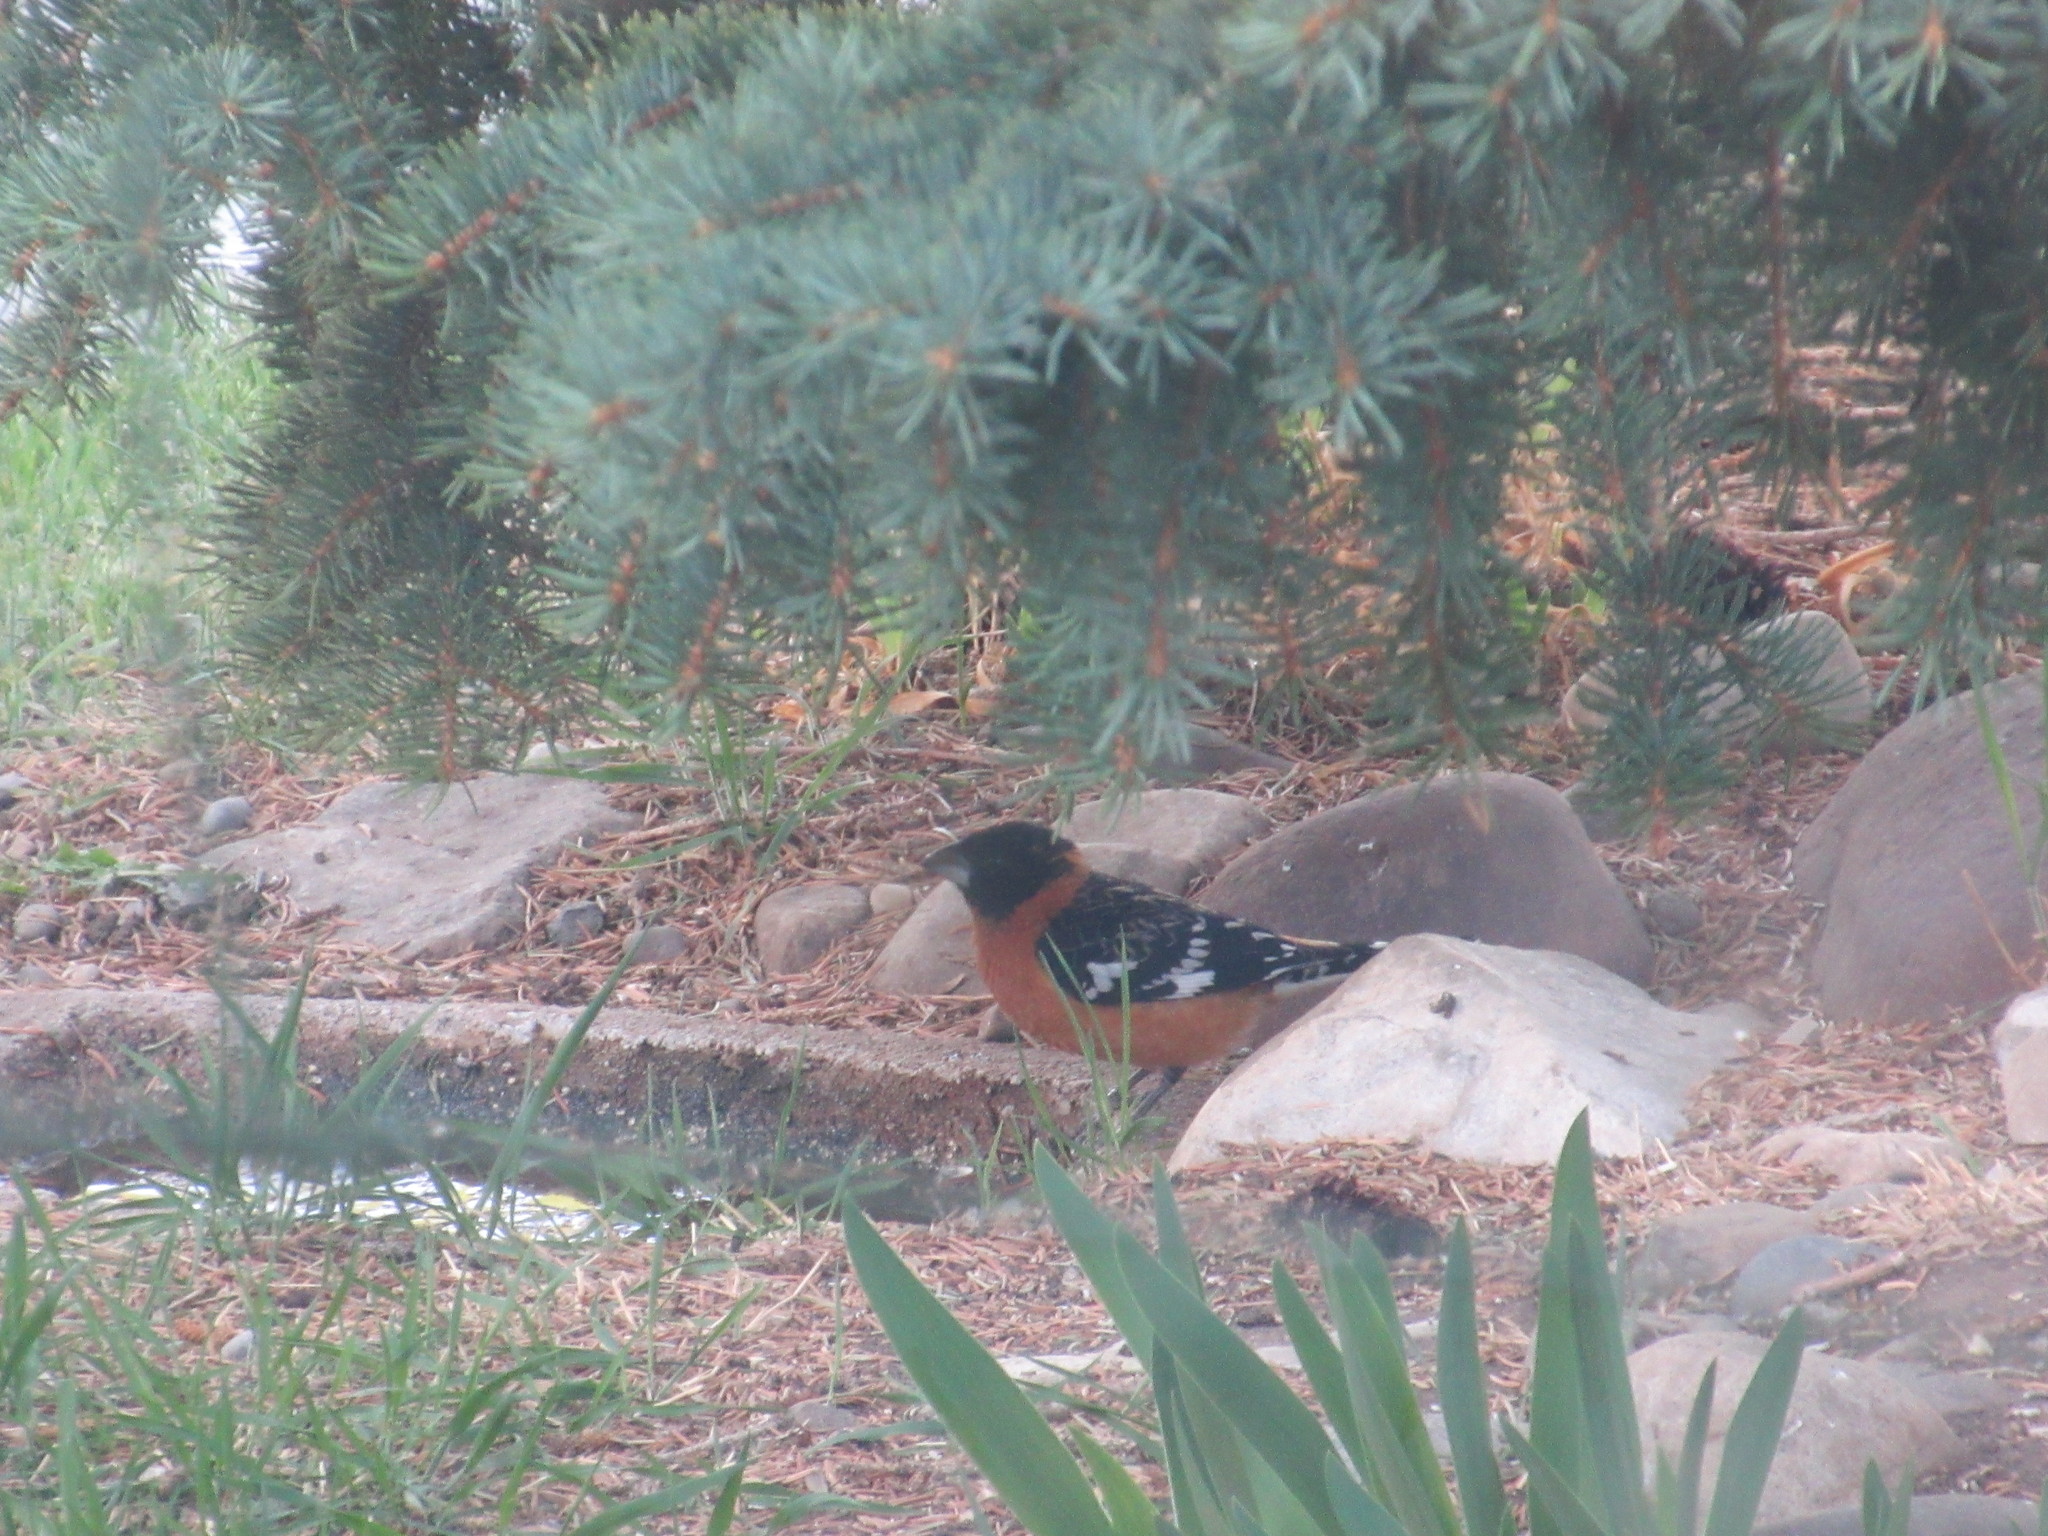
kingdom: Animalia
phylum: Chordata
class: Aves
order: Passeriformes
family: Cardinalidae
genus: Pheucticus
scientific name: Pheucticus melanocephalus
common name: Black-headed grosbeak
